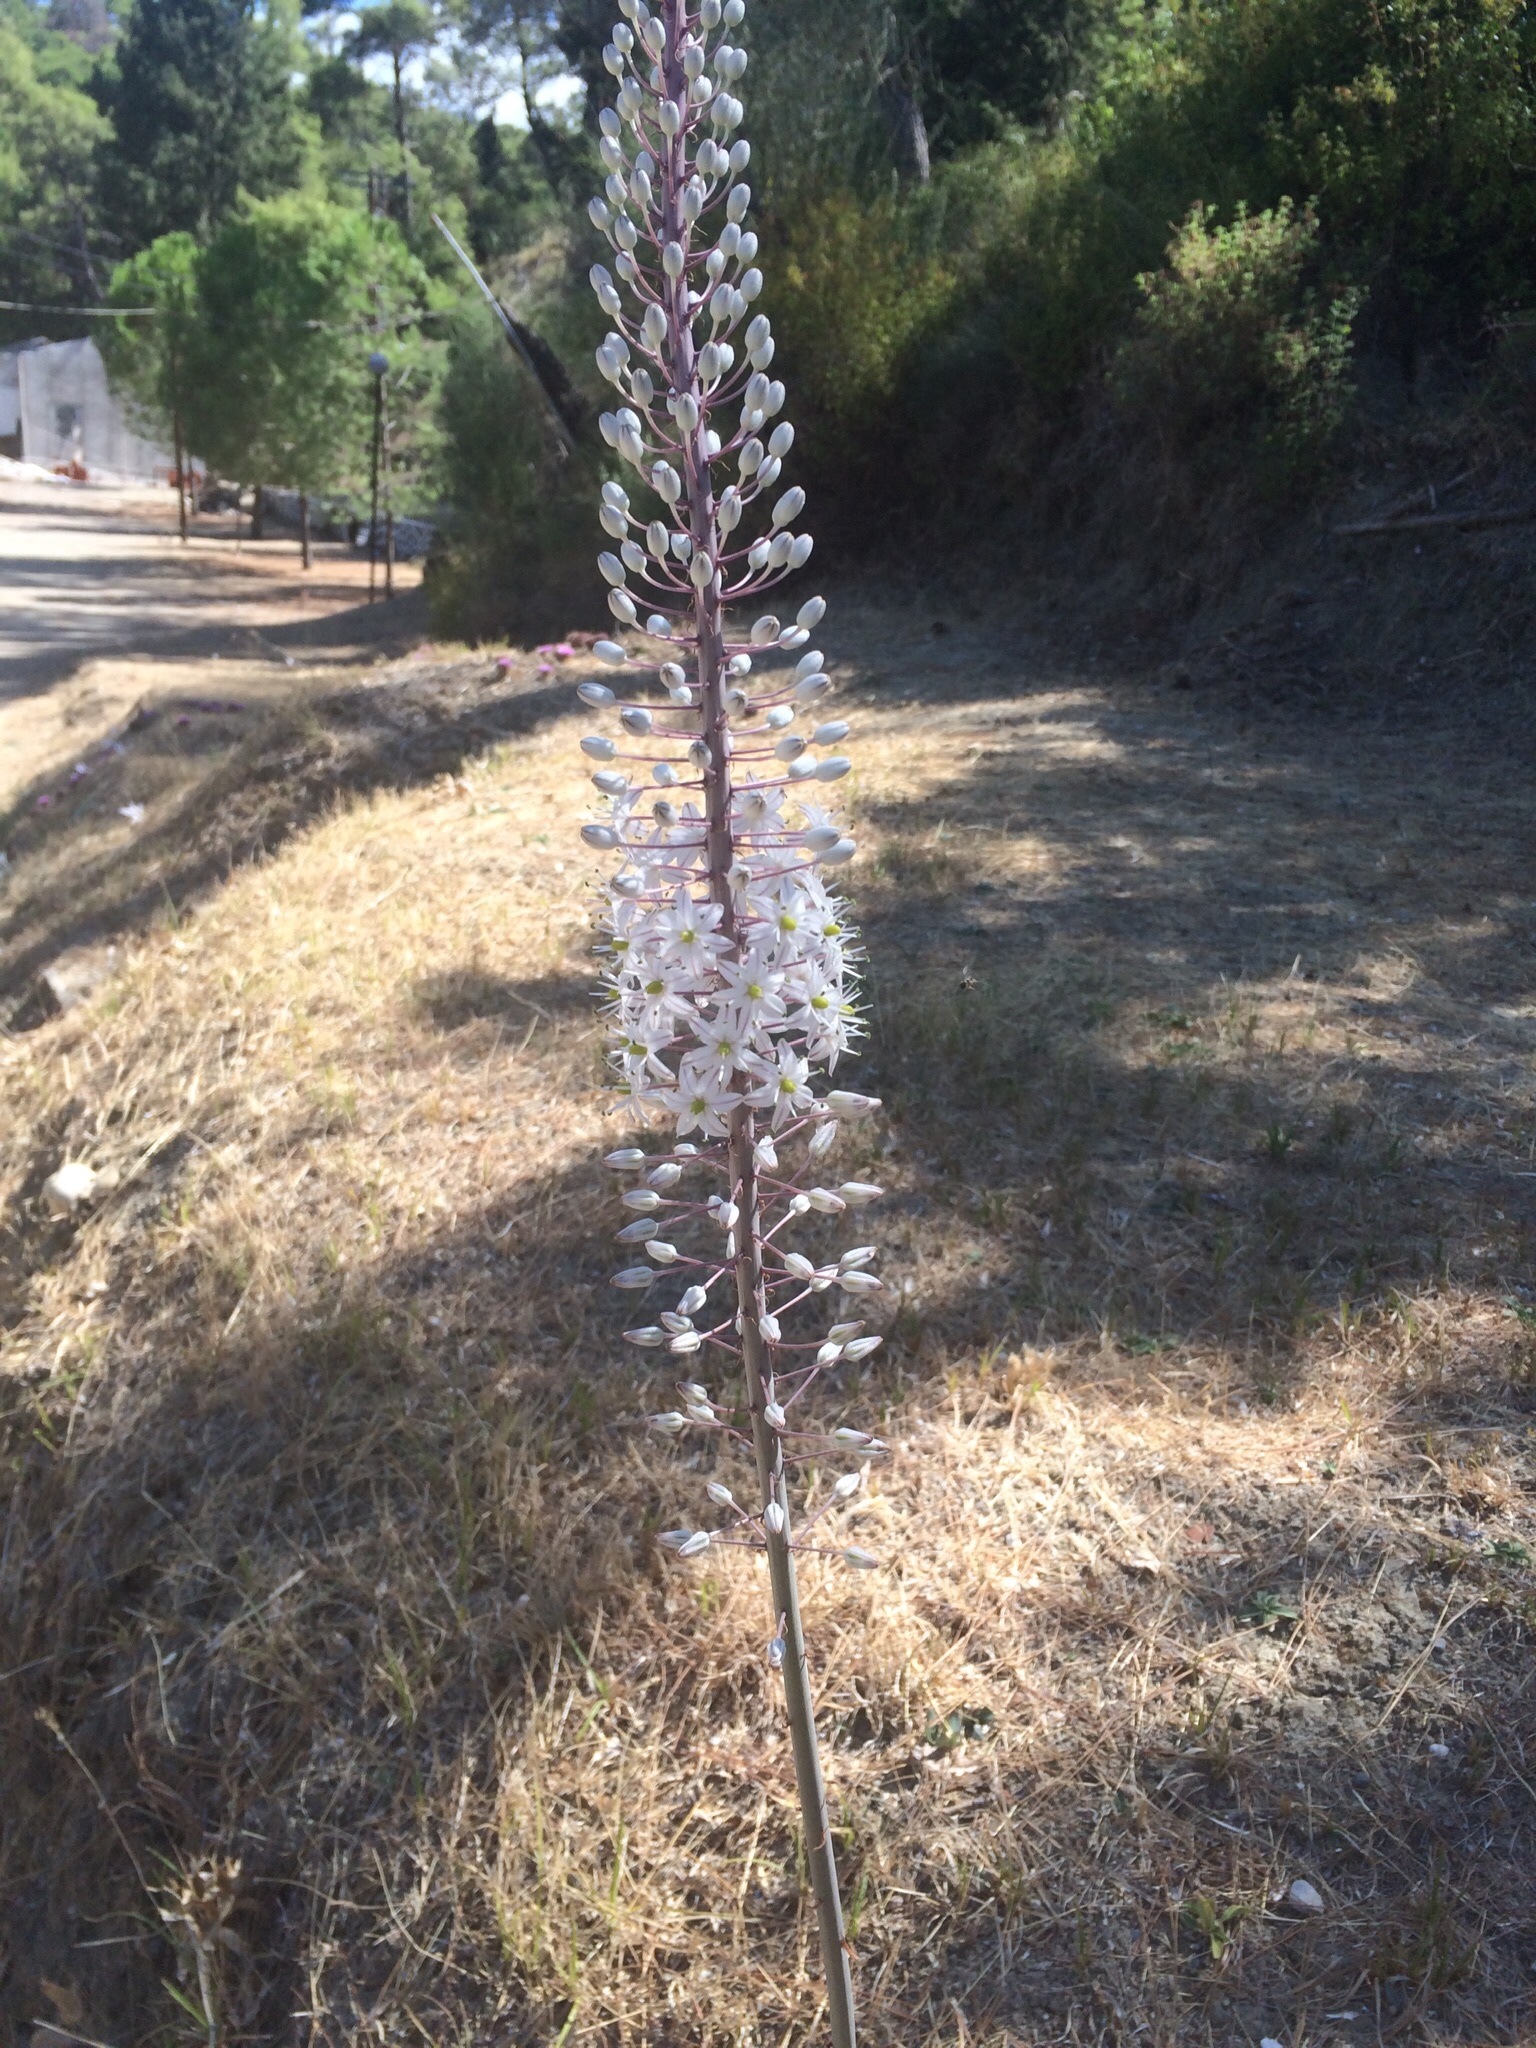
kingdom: Plantae
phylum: Tracheophyta
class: Liliopsida
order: Asparagales
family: Asparagaceae
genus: Drimia
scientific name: Drimia aphylla
